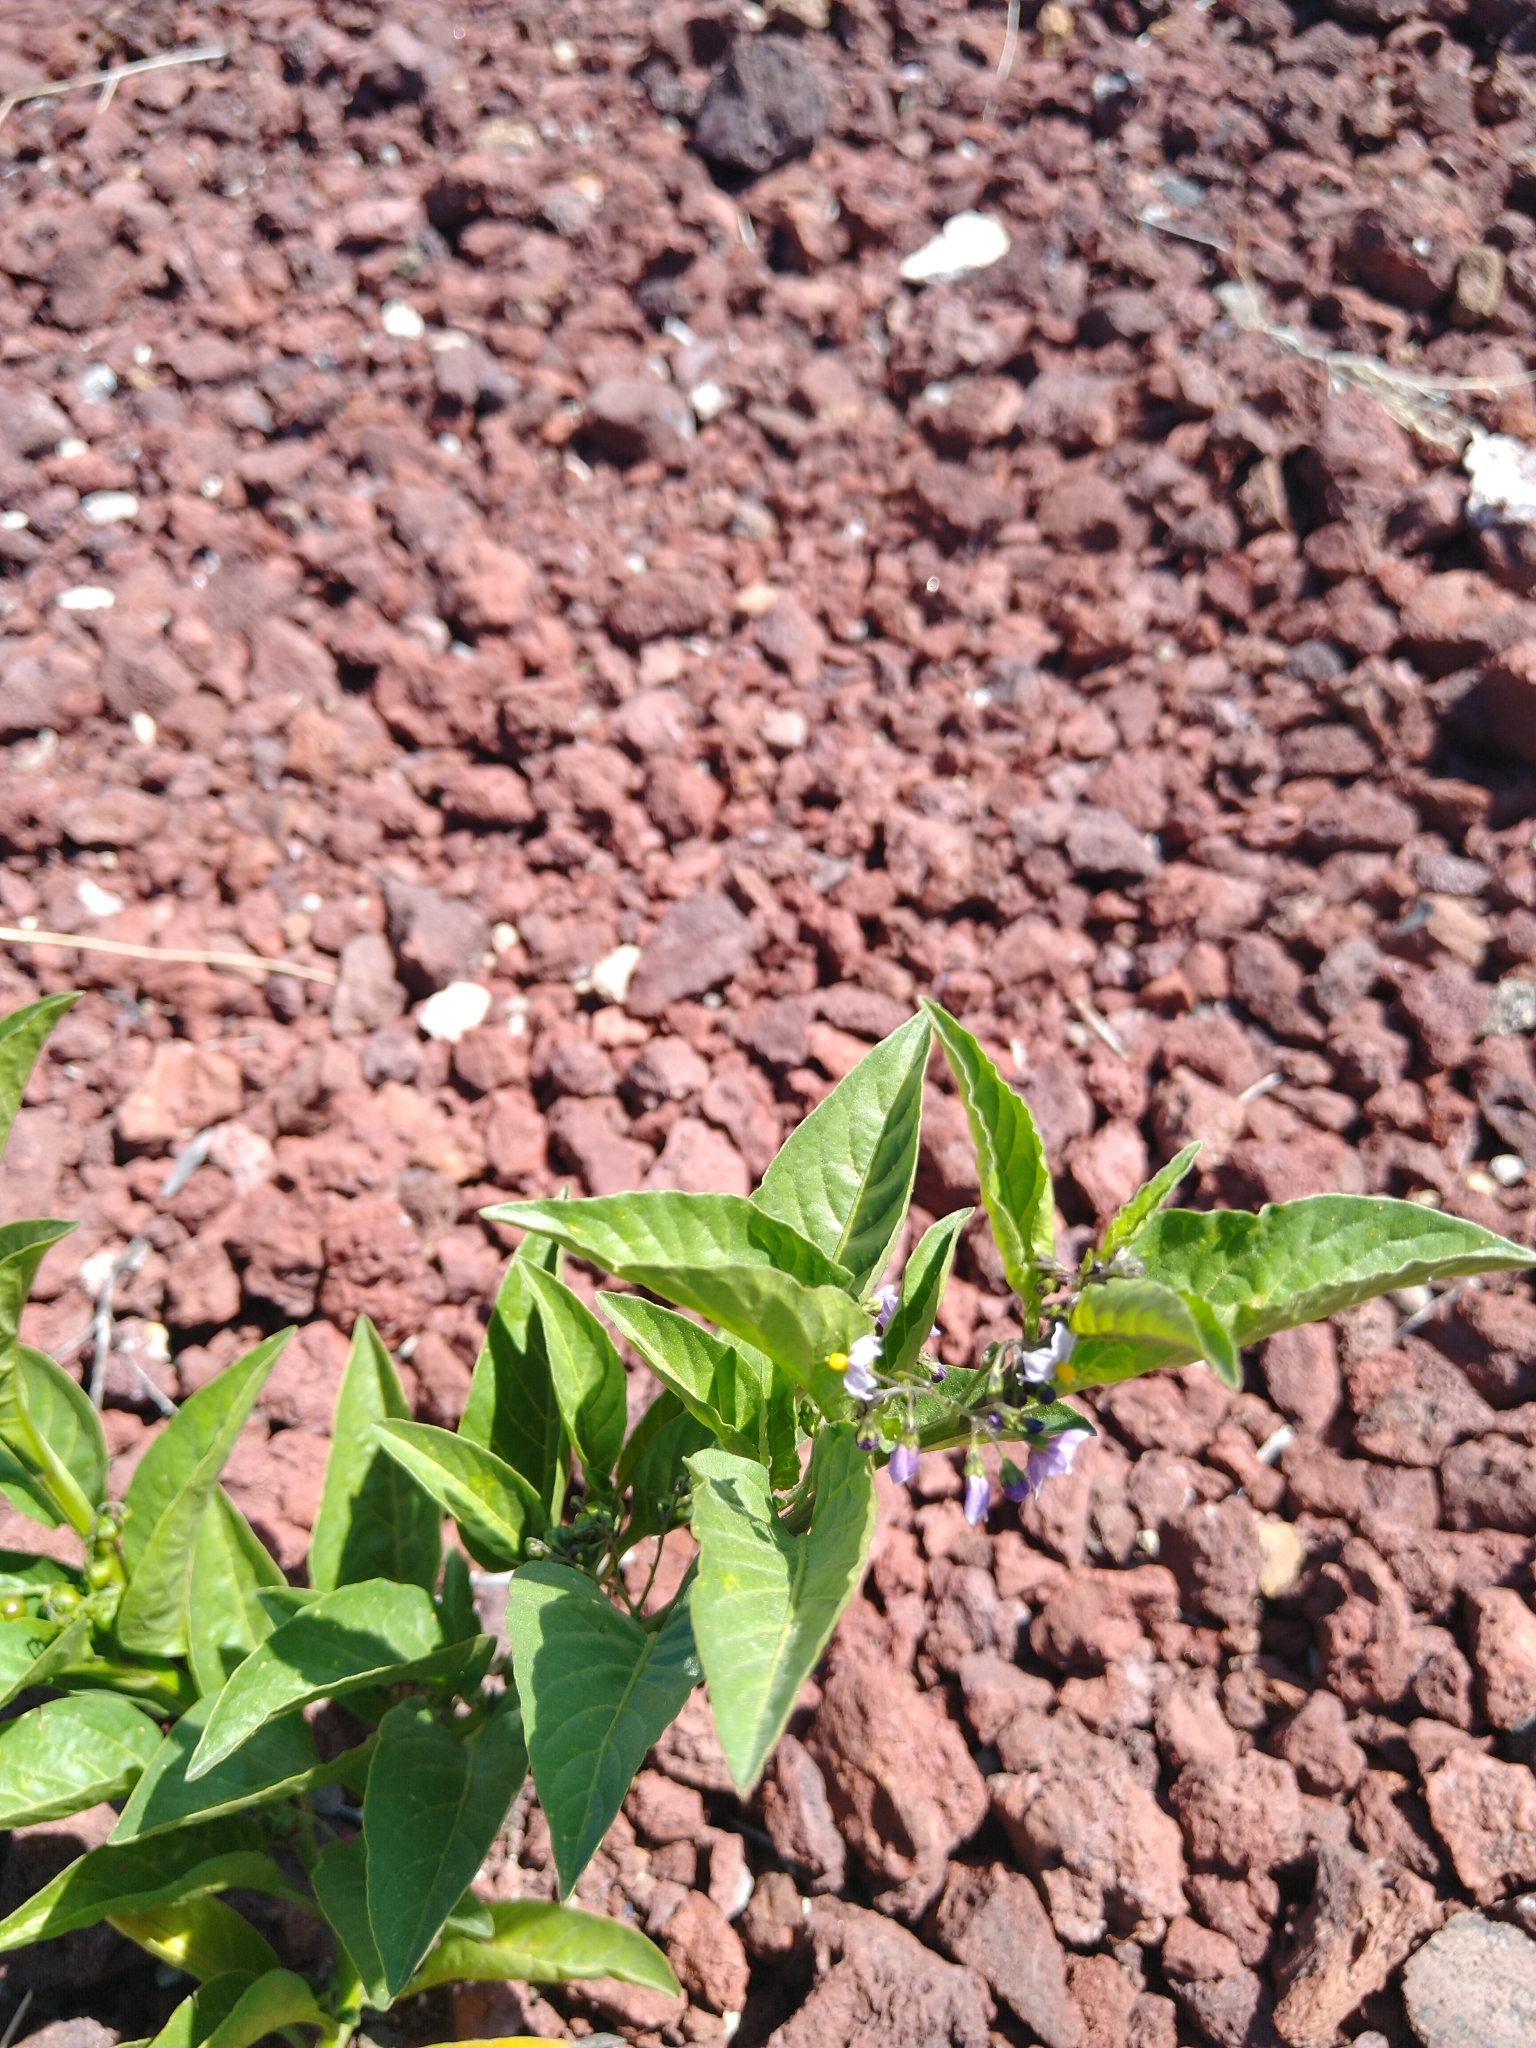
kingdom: Plantae
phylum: Tracheophyta
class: Magnoliopsida
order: Solanales
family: Solanaceae
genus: Solanum
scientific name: Solanum corymbosum
